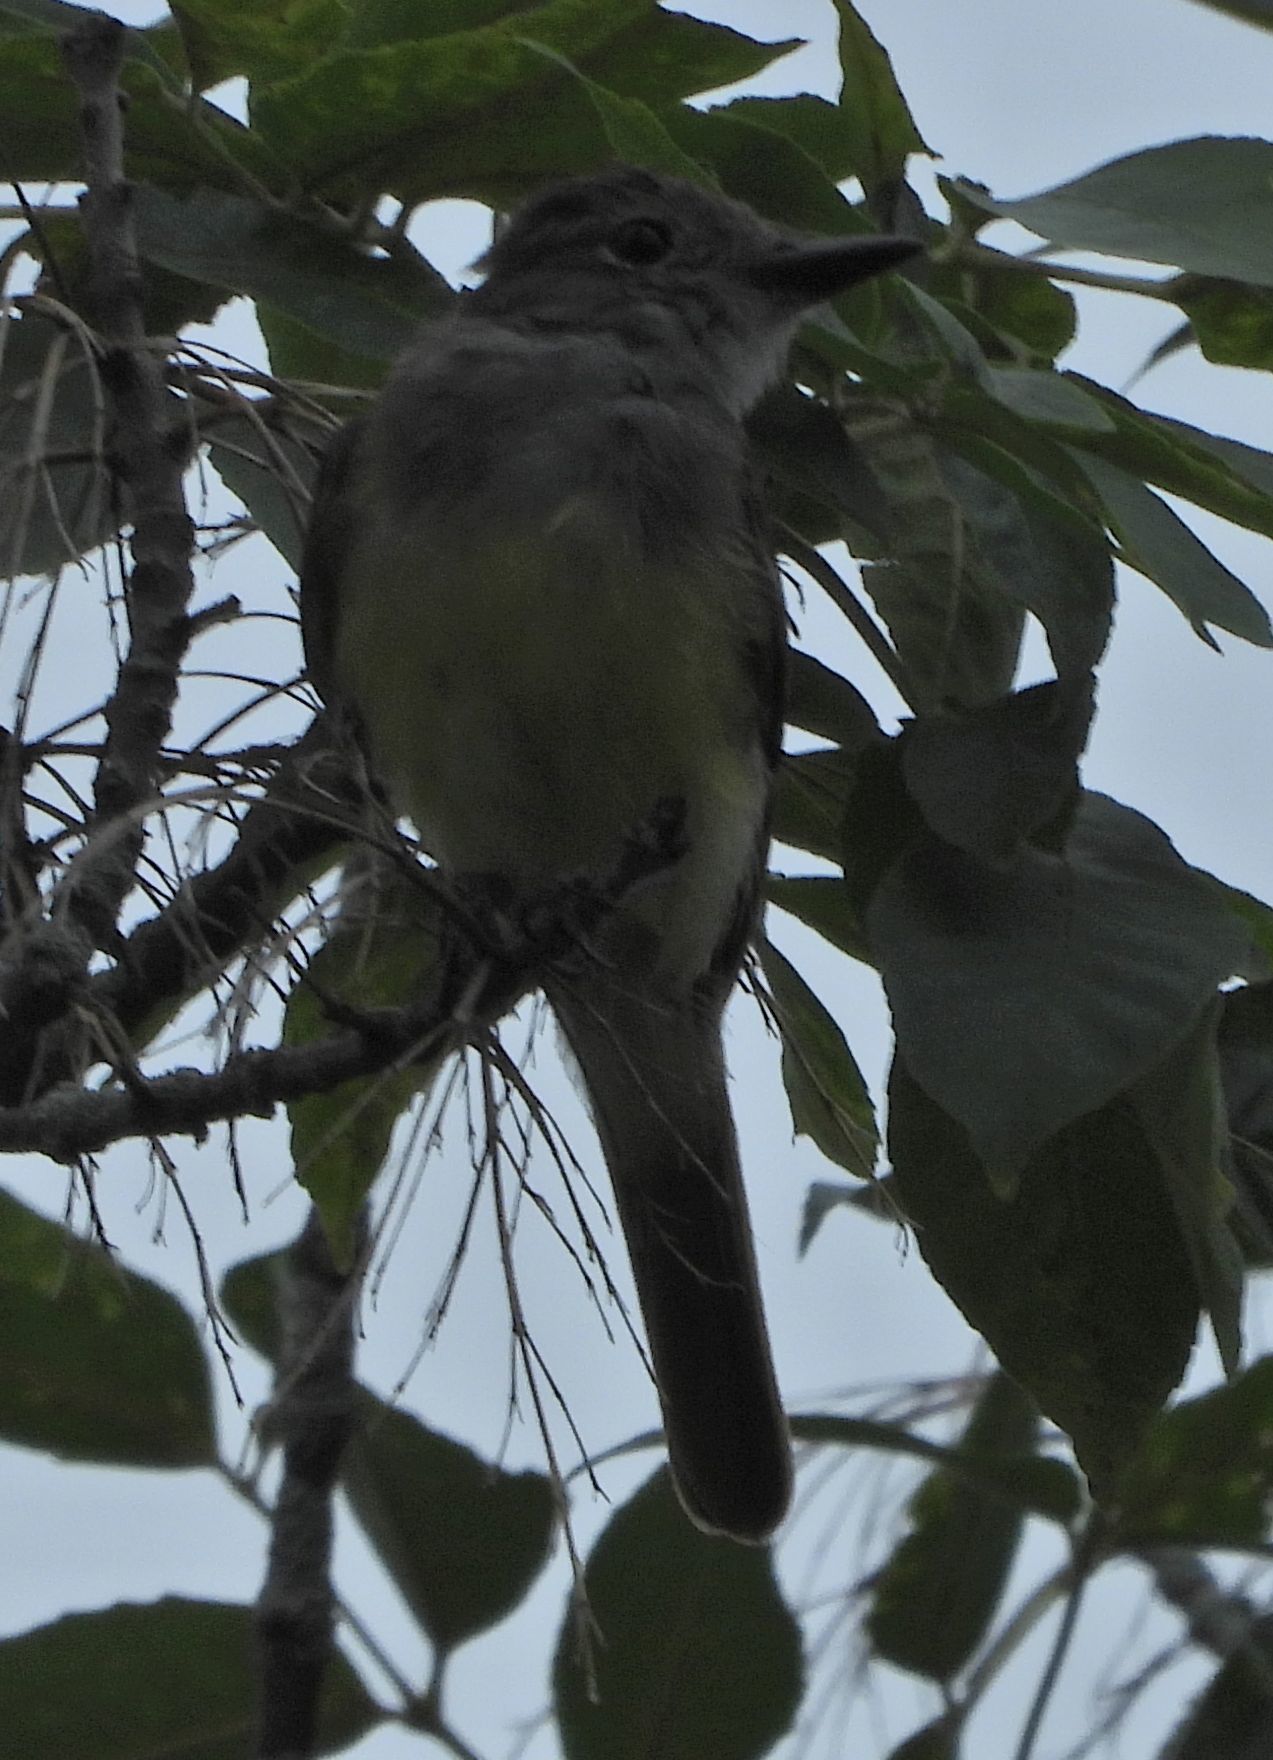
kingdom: Animalia
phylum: Chordata
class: Aves
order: Passeriformes
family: Tyrannidae
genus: Myiarchus
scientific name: Myiarchus crinitus
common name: Great crested flycatcher
